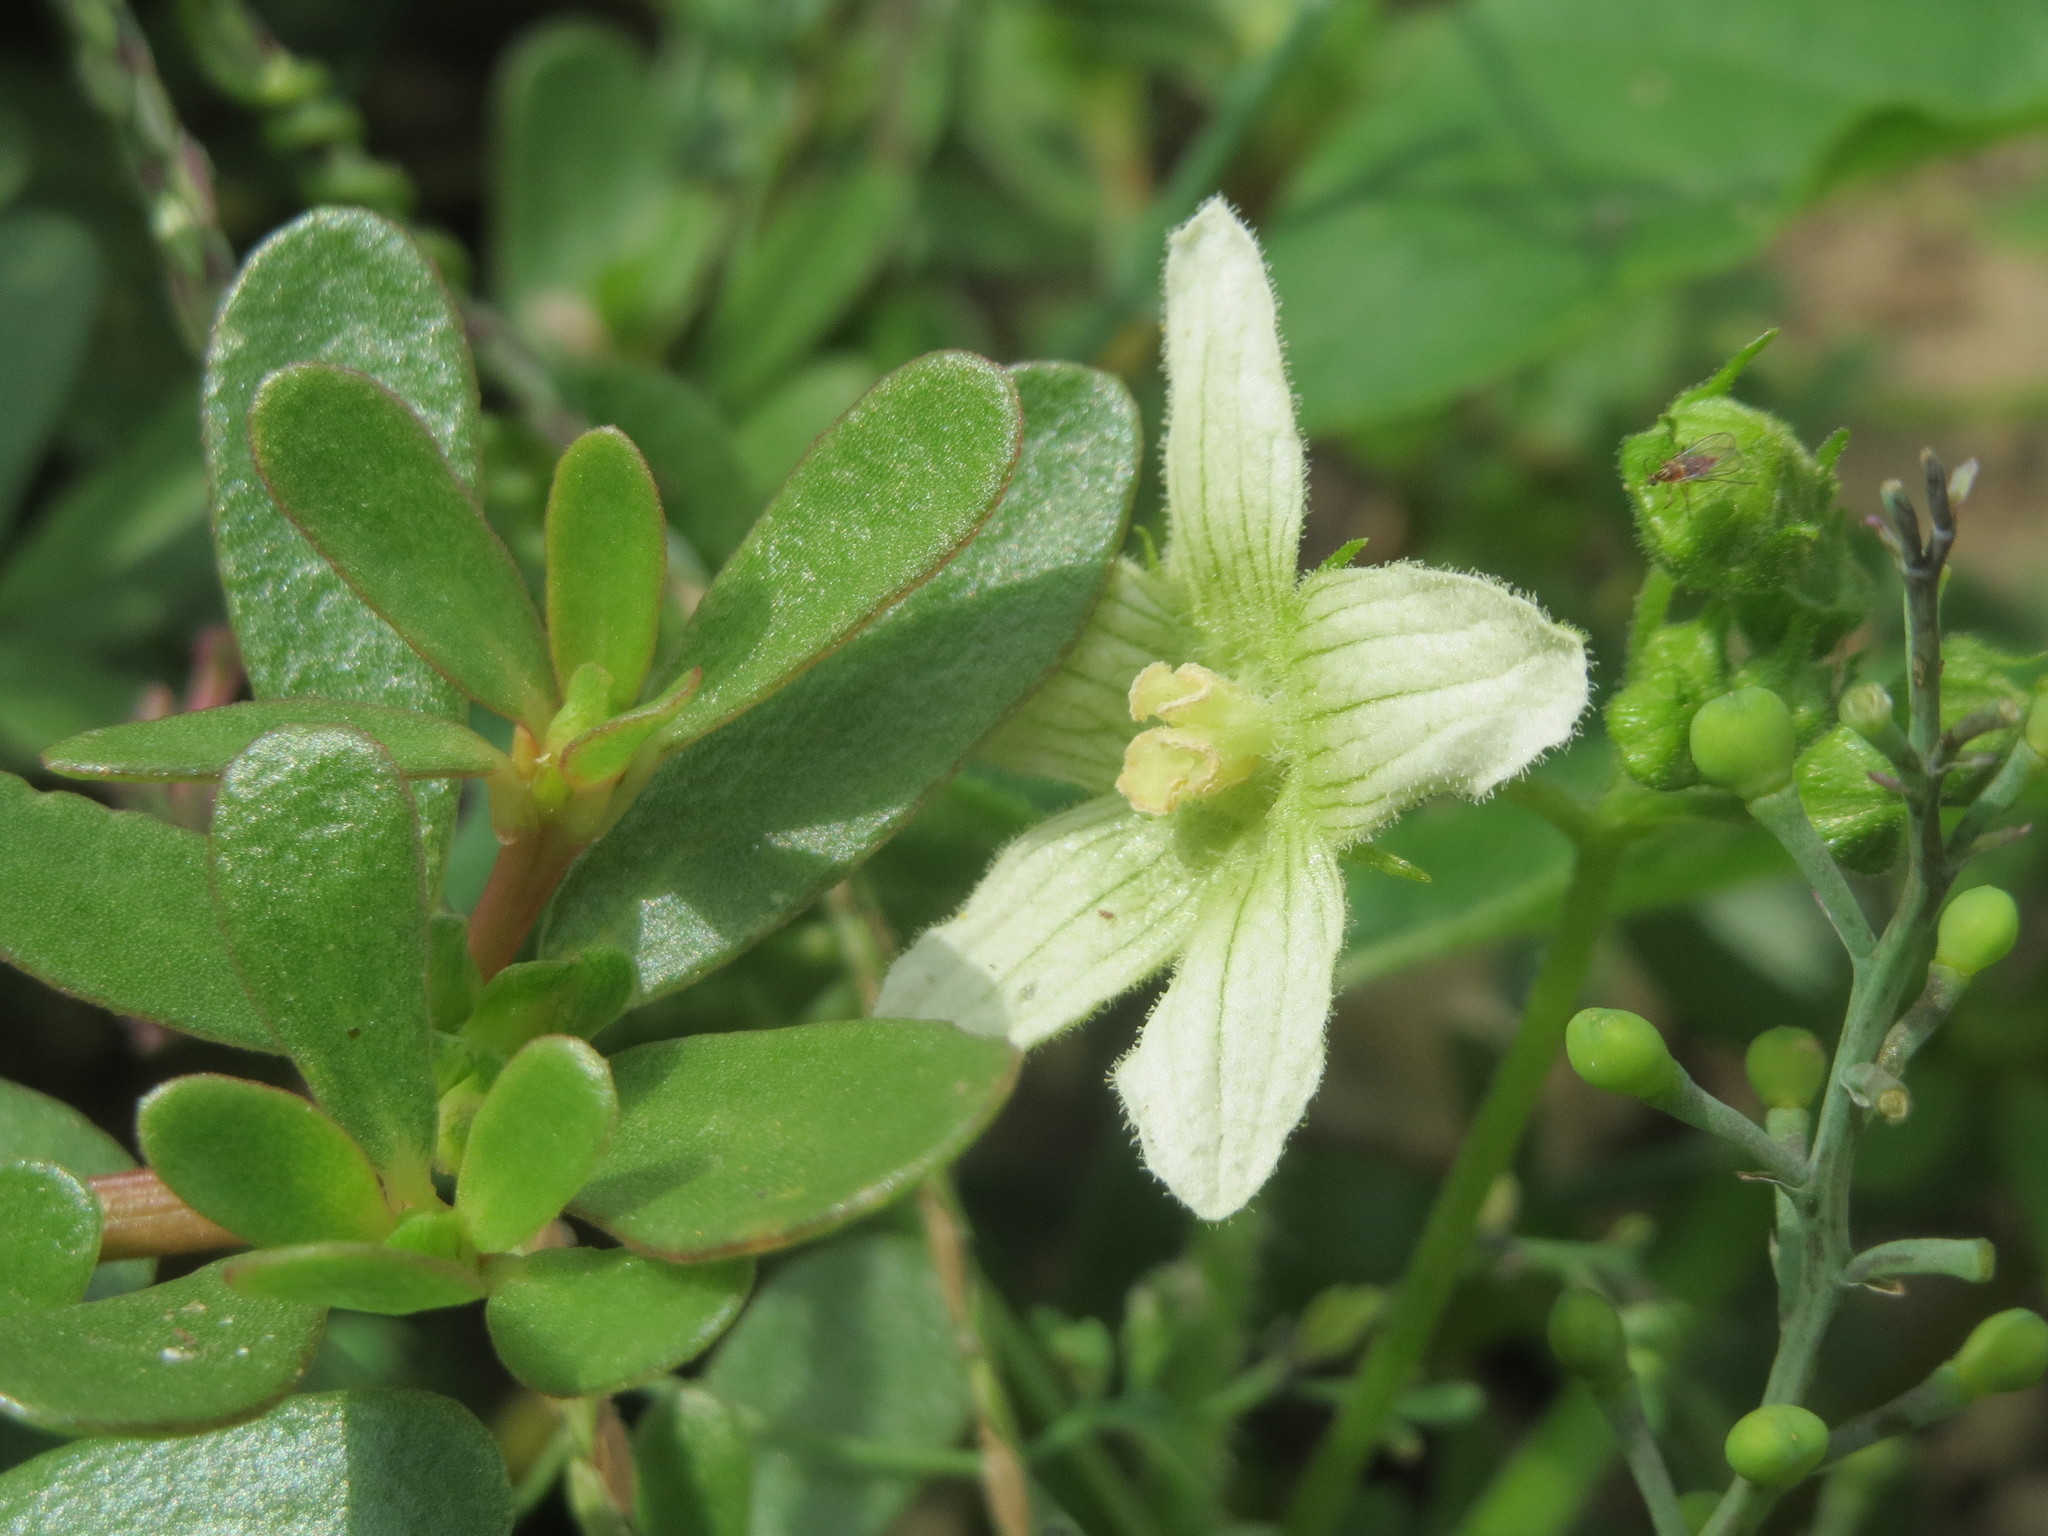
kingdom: Plantae
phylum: Tracheophyta
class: Magnoliopsida
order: Cucurbitales
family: Cucurbitaceae
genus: Bryonia
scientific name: Bryonia dioica
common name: White bryony
